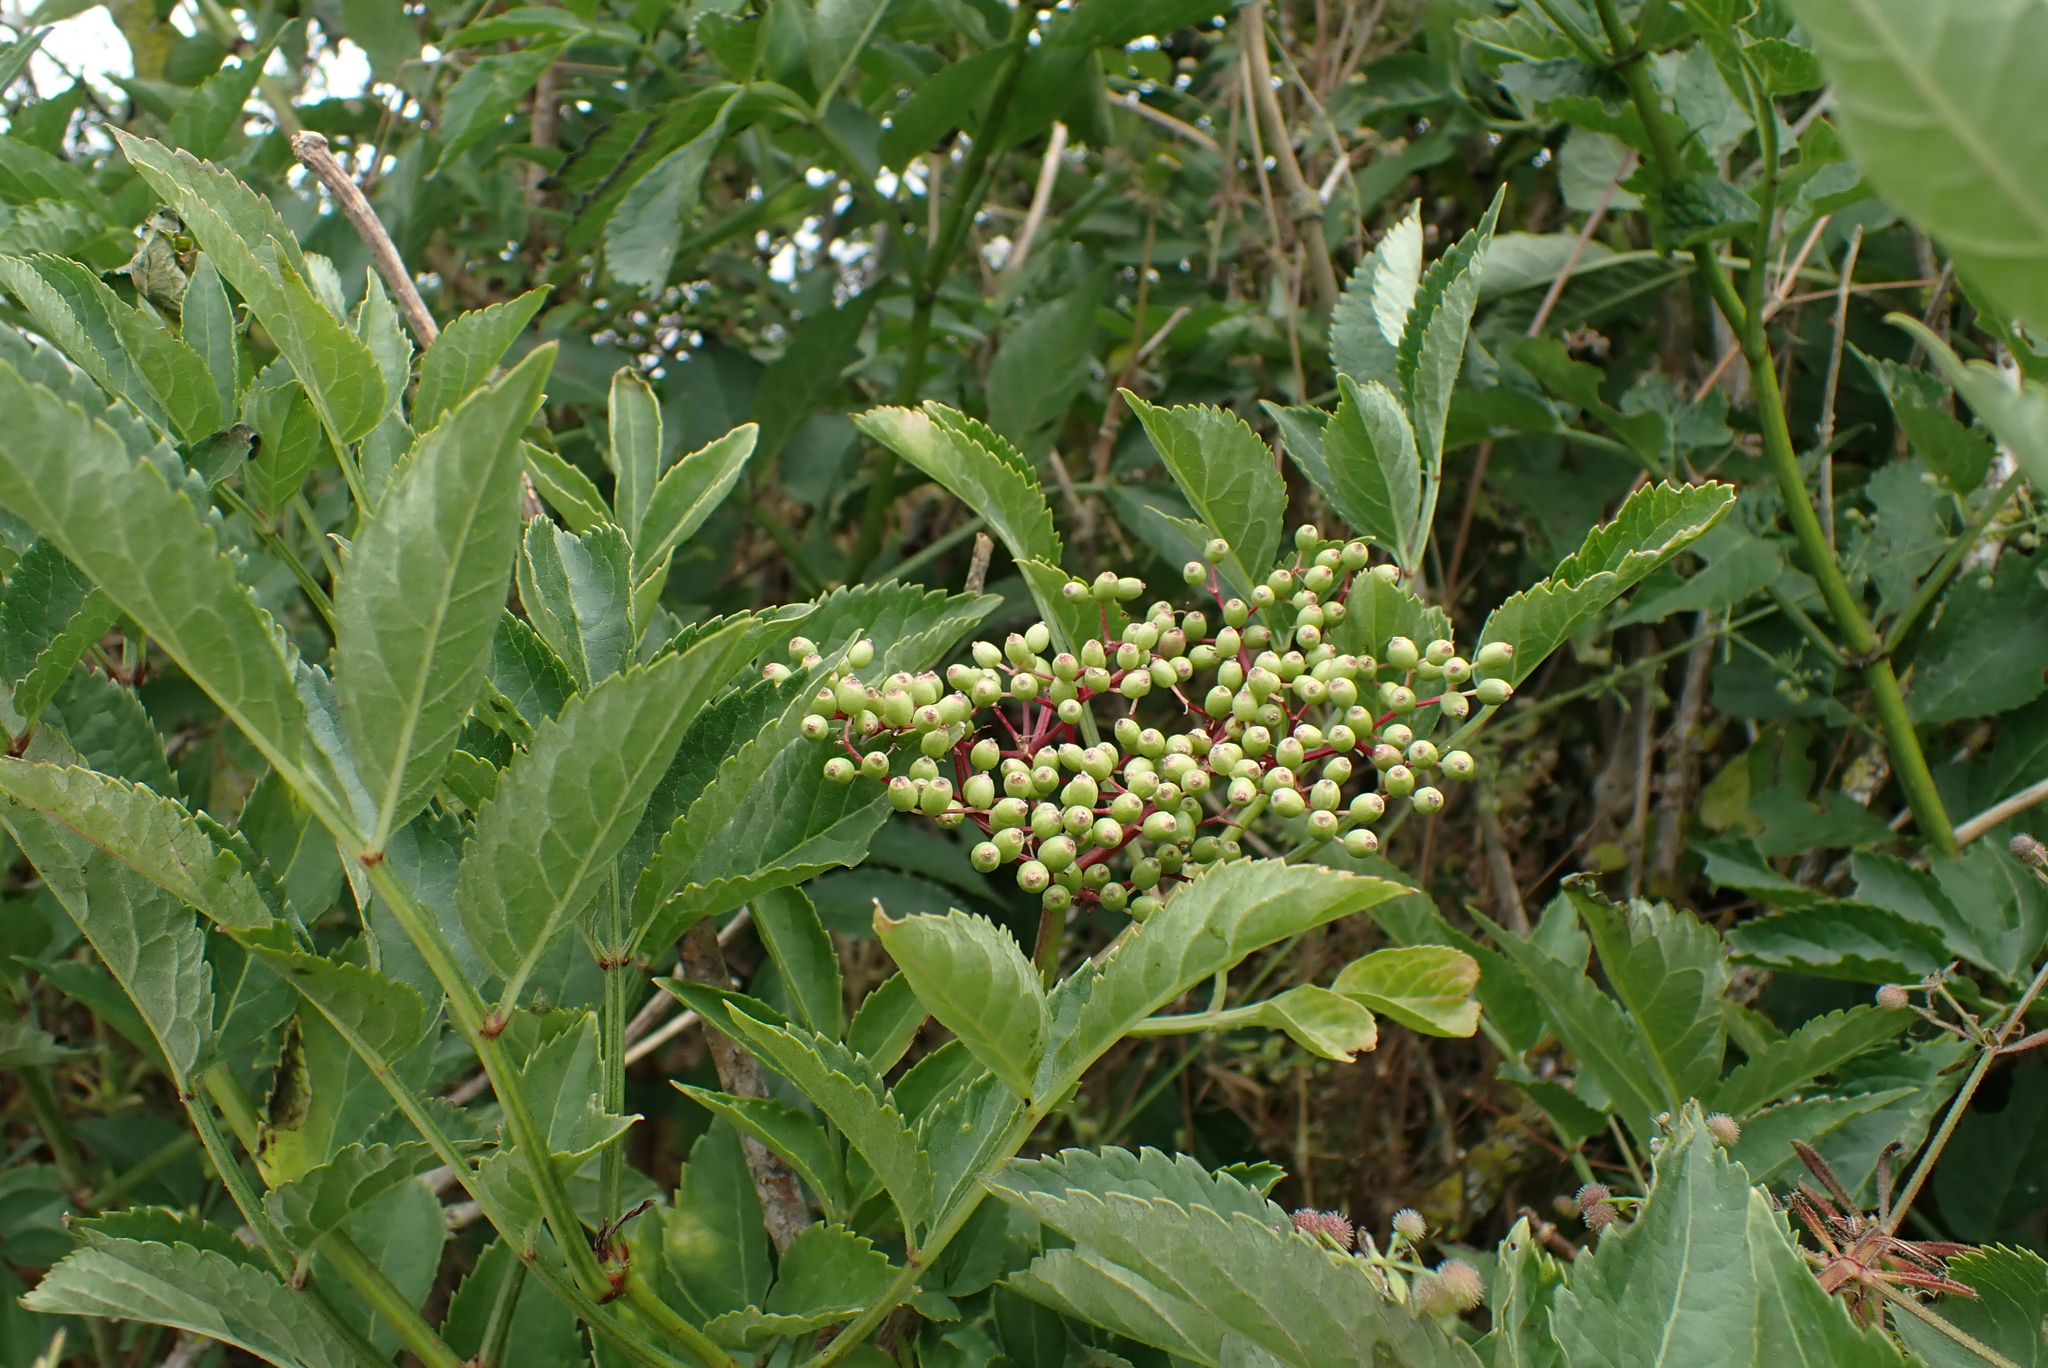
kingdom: Plantae
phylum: Tracheophyta
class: Magnoliopsida
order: Dipsacales
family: Viburnaceae
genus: Sambucus
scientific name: Sambucus nigra
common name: Elder
